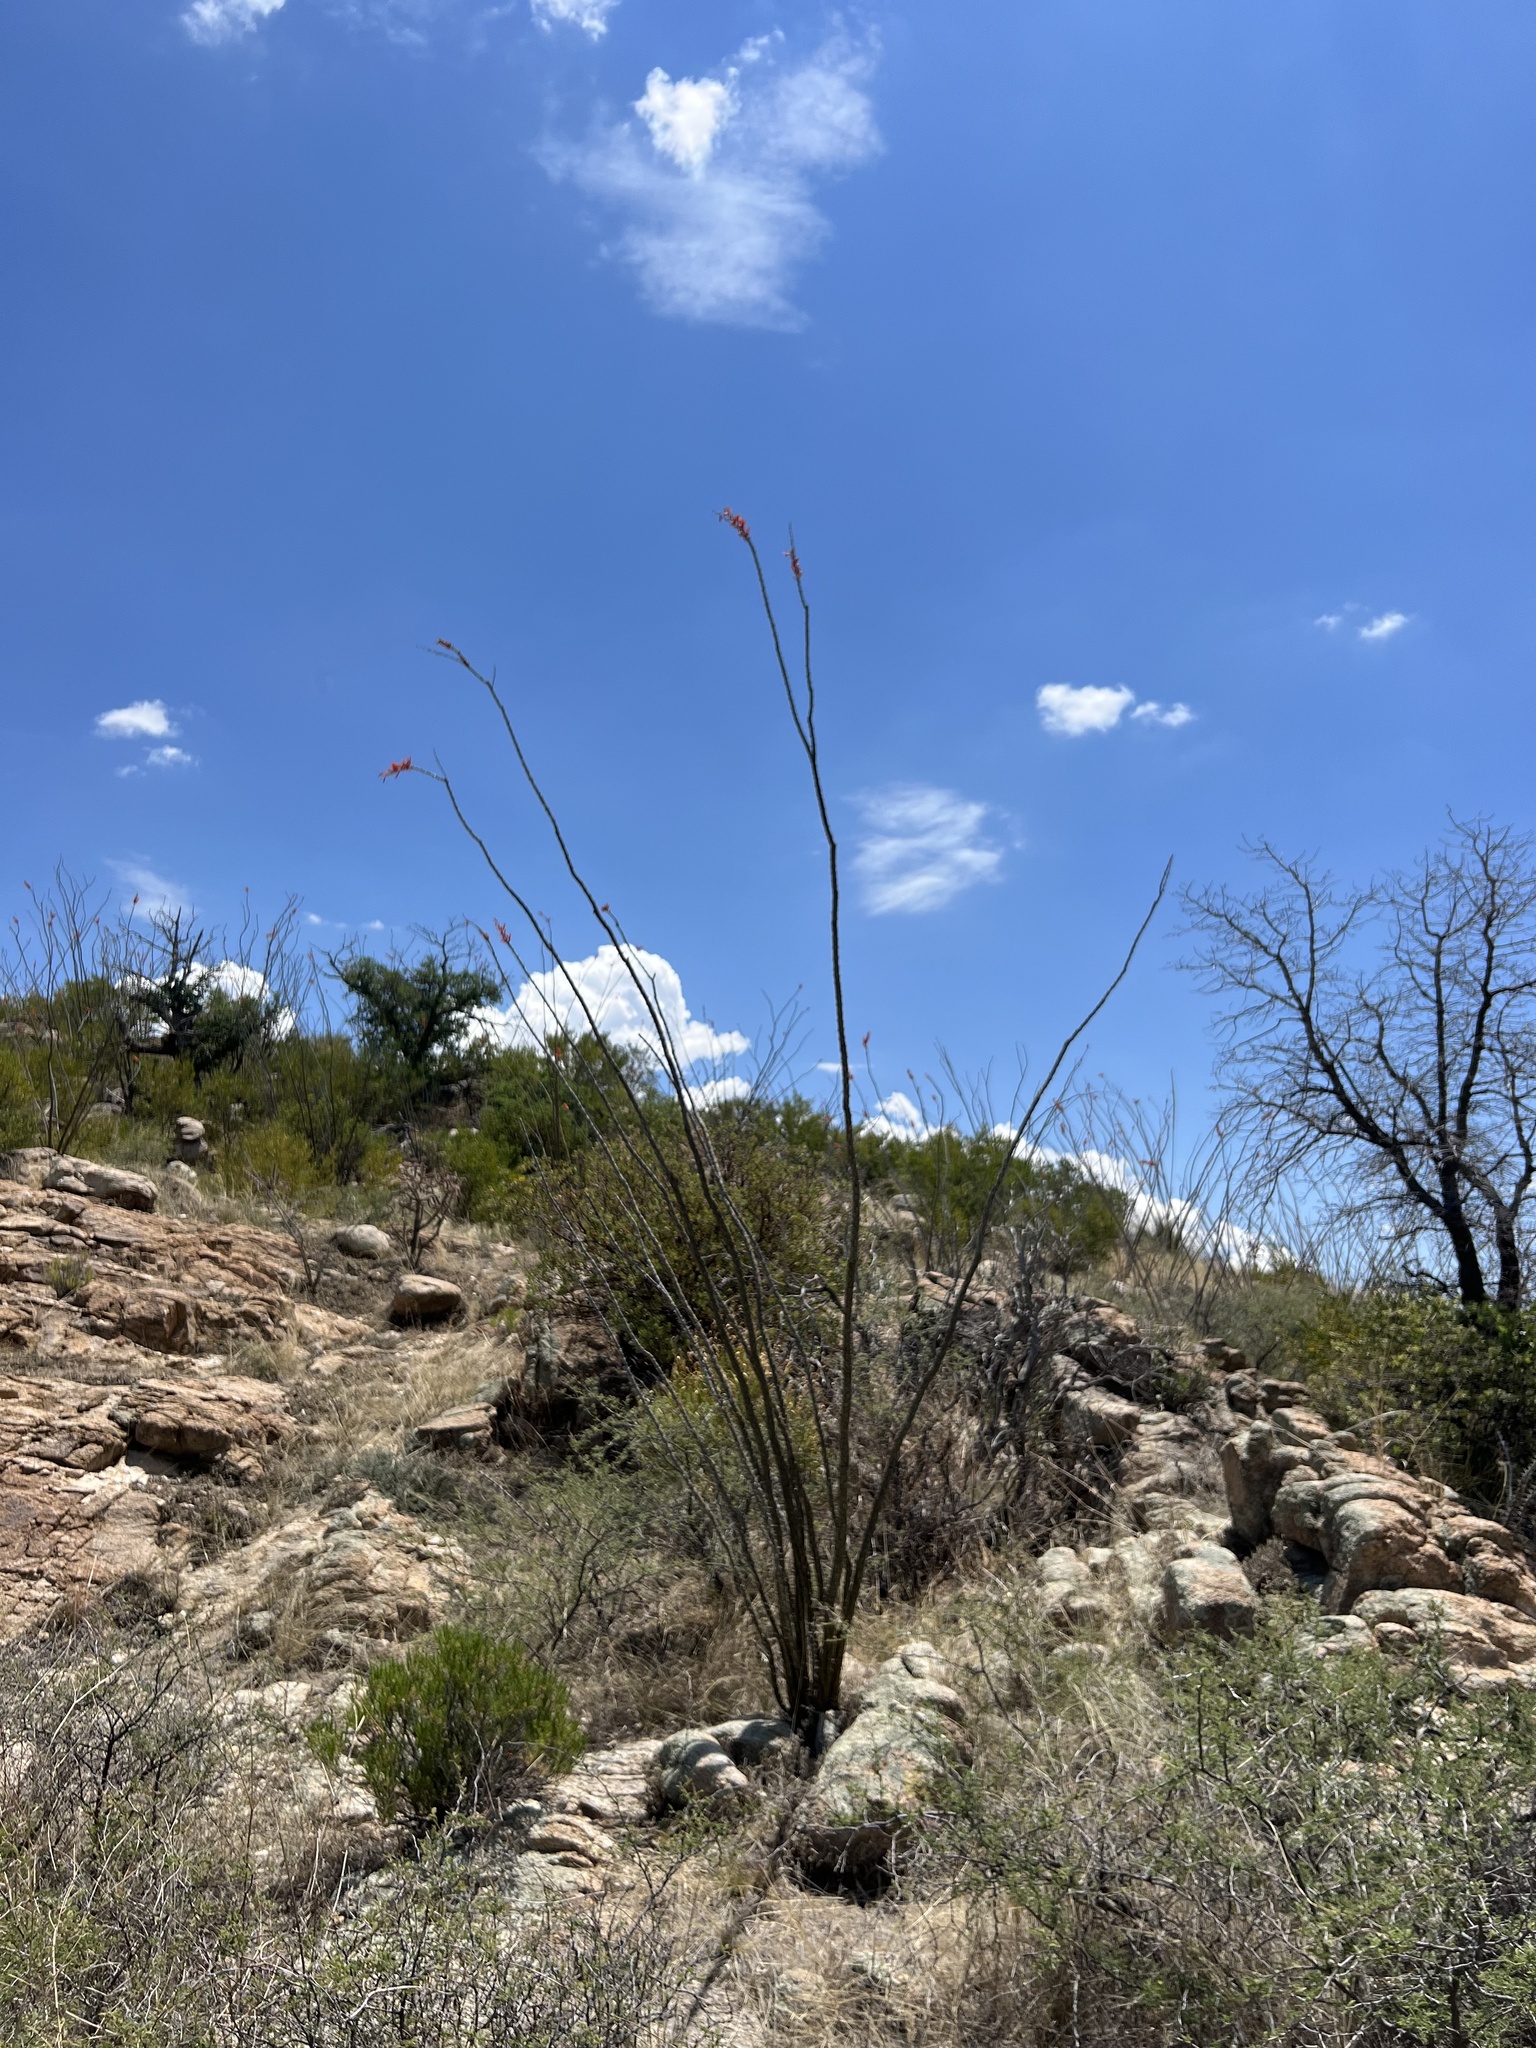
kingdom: Plantae
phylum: Tracheophyta
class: Magnoliopsida
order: Ericales
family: Fouquieriaceae
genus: Fouquieria
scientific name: Fouquieria splendens
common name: Vine-cactus
